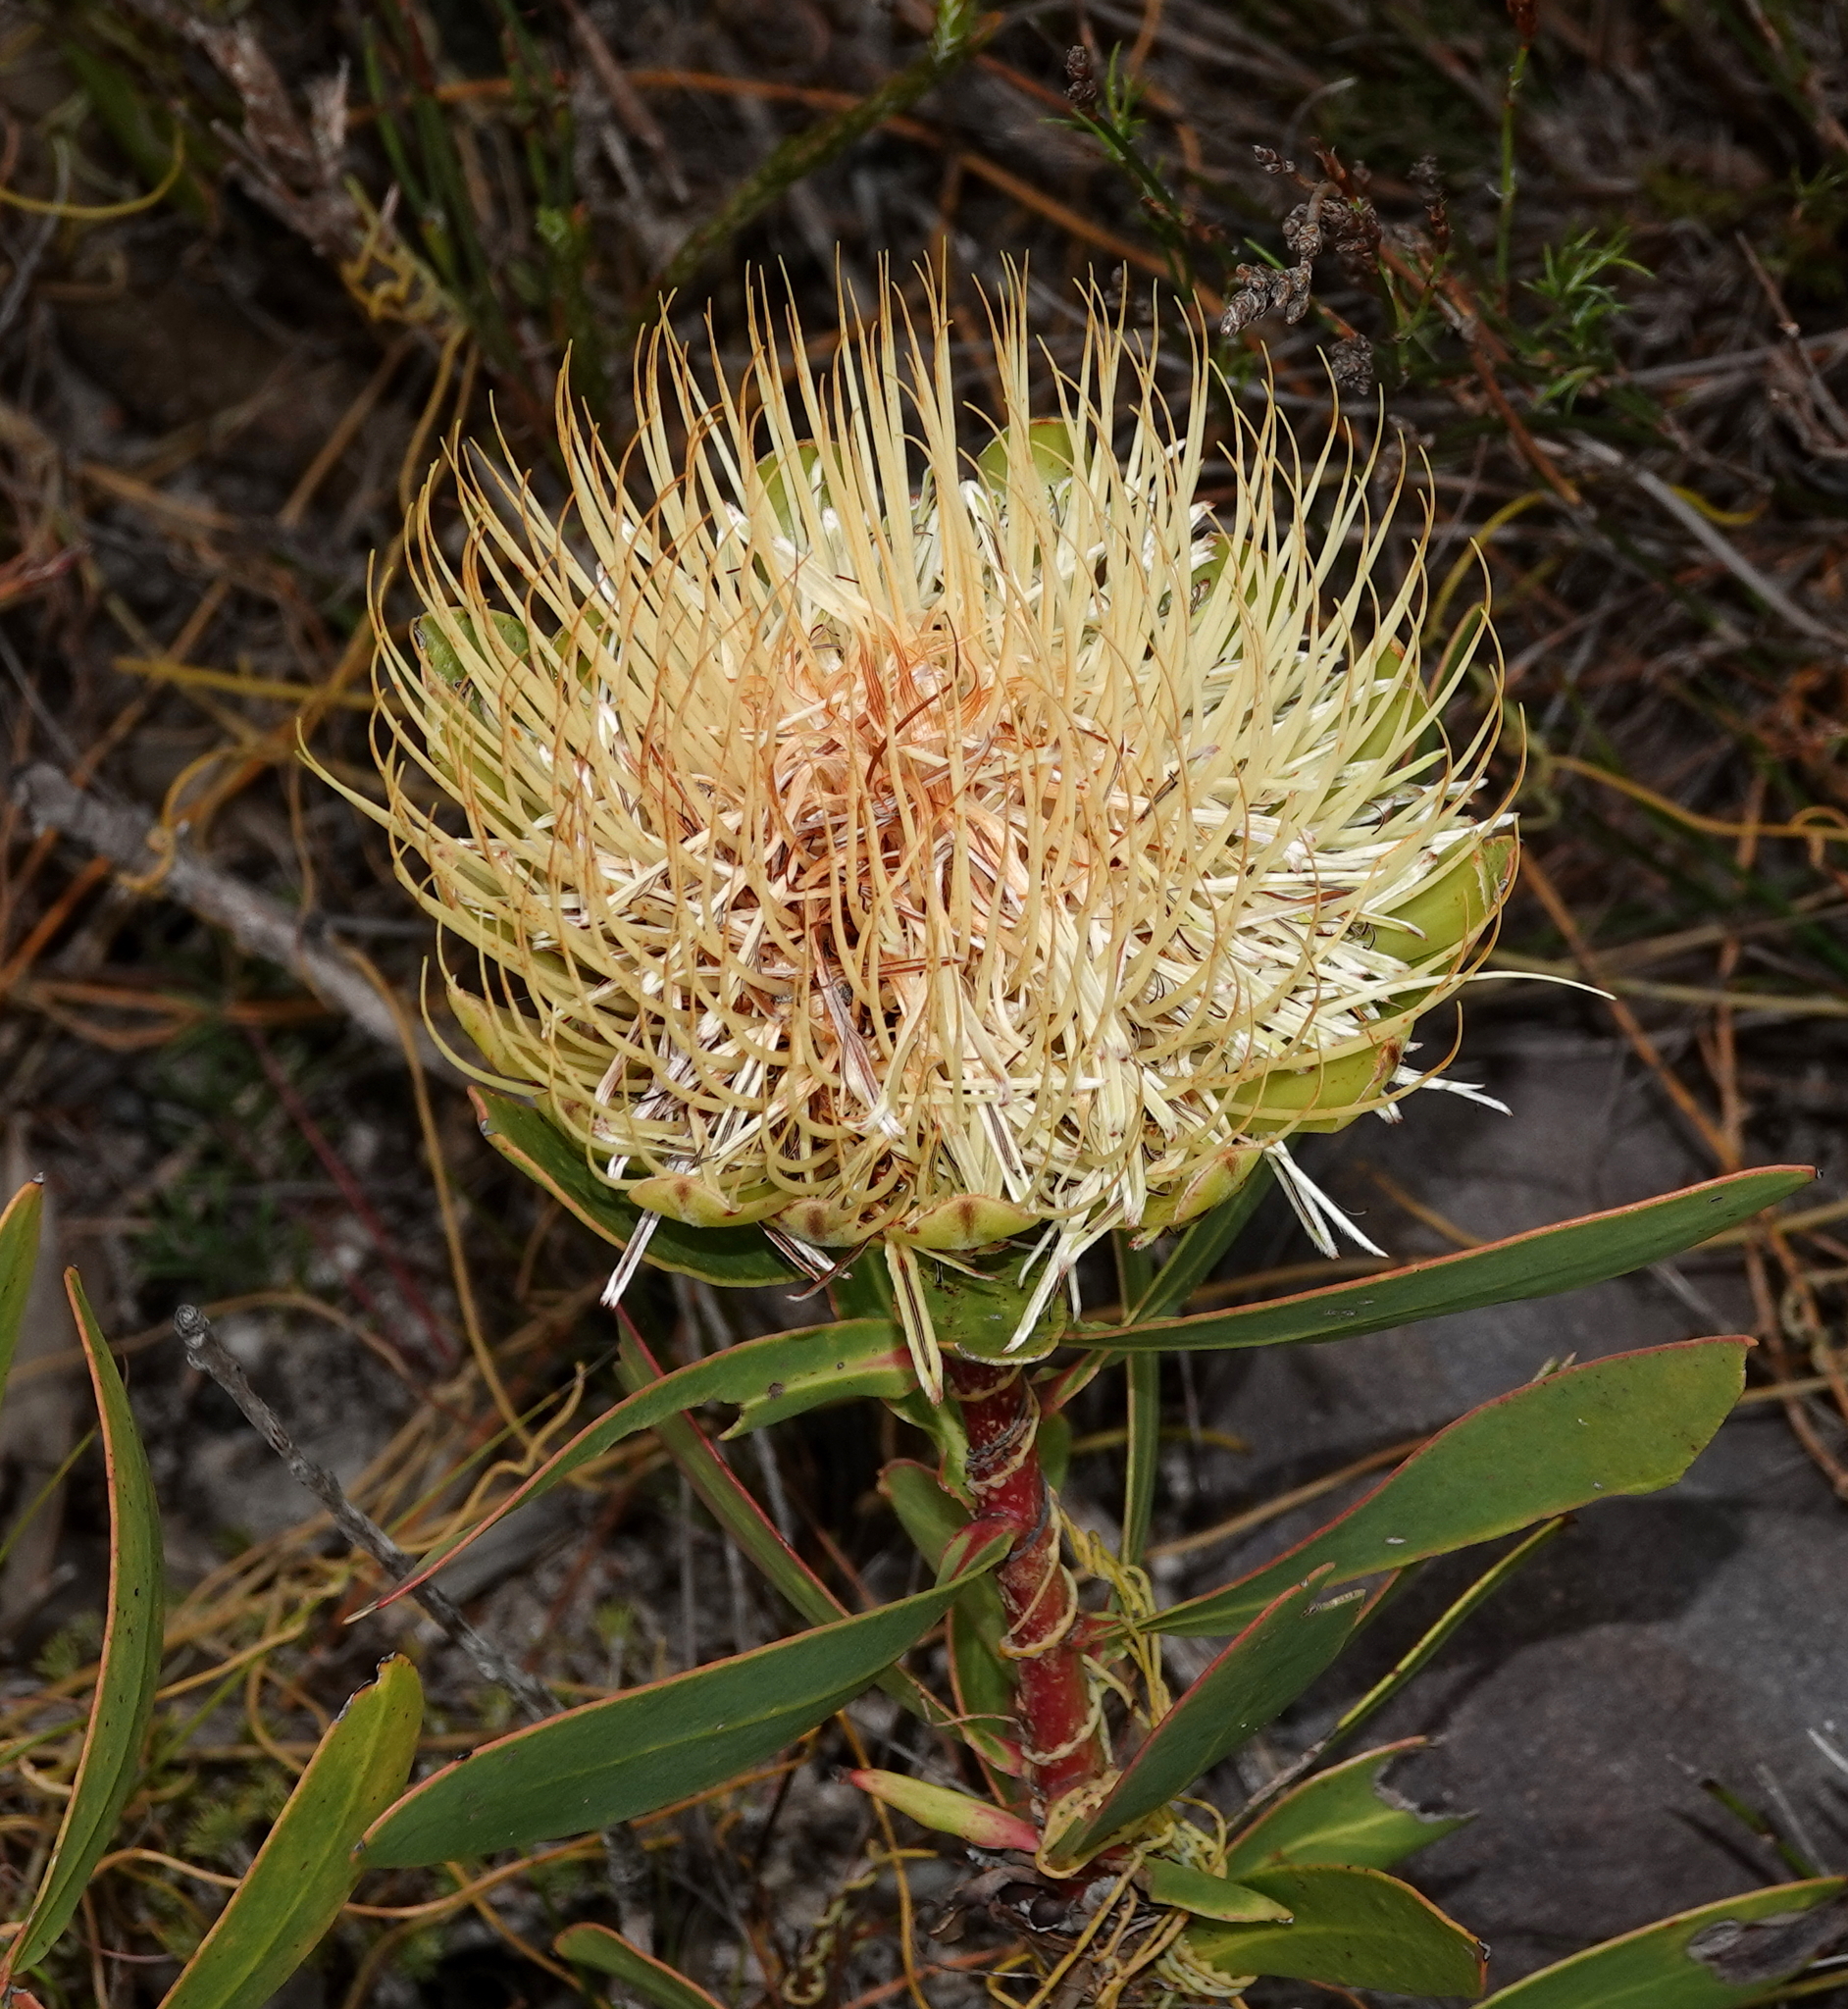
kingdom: Plantae
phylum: Tracheophyta
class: Magnoliopsida
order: Proteales
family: Proteaceae
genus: Protea
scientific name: Protea nitida
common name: Tree protea
